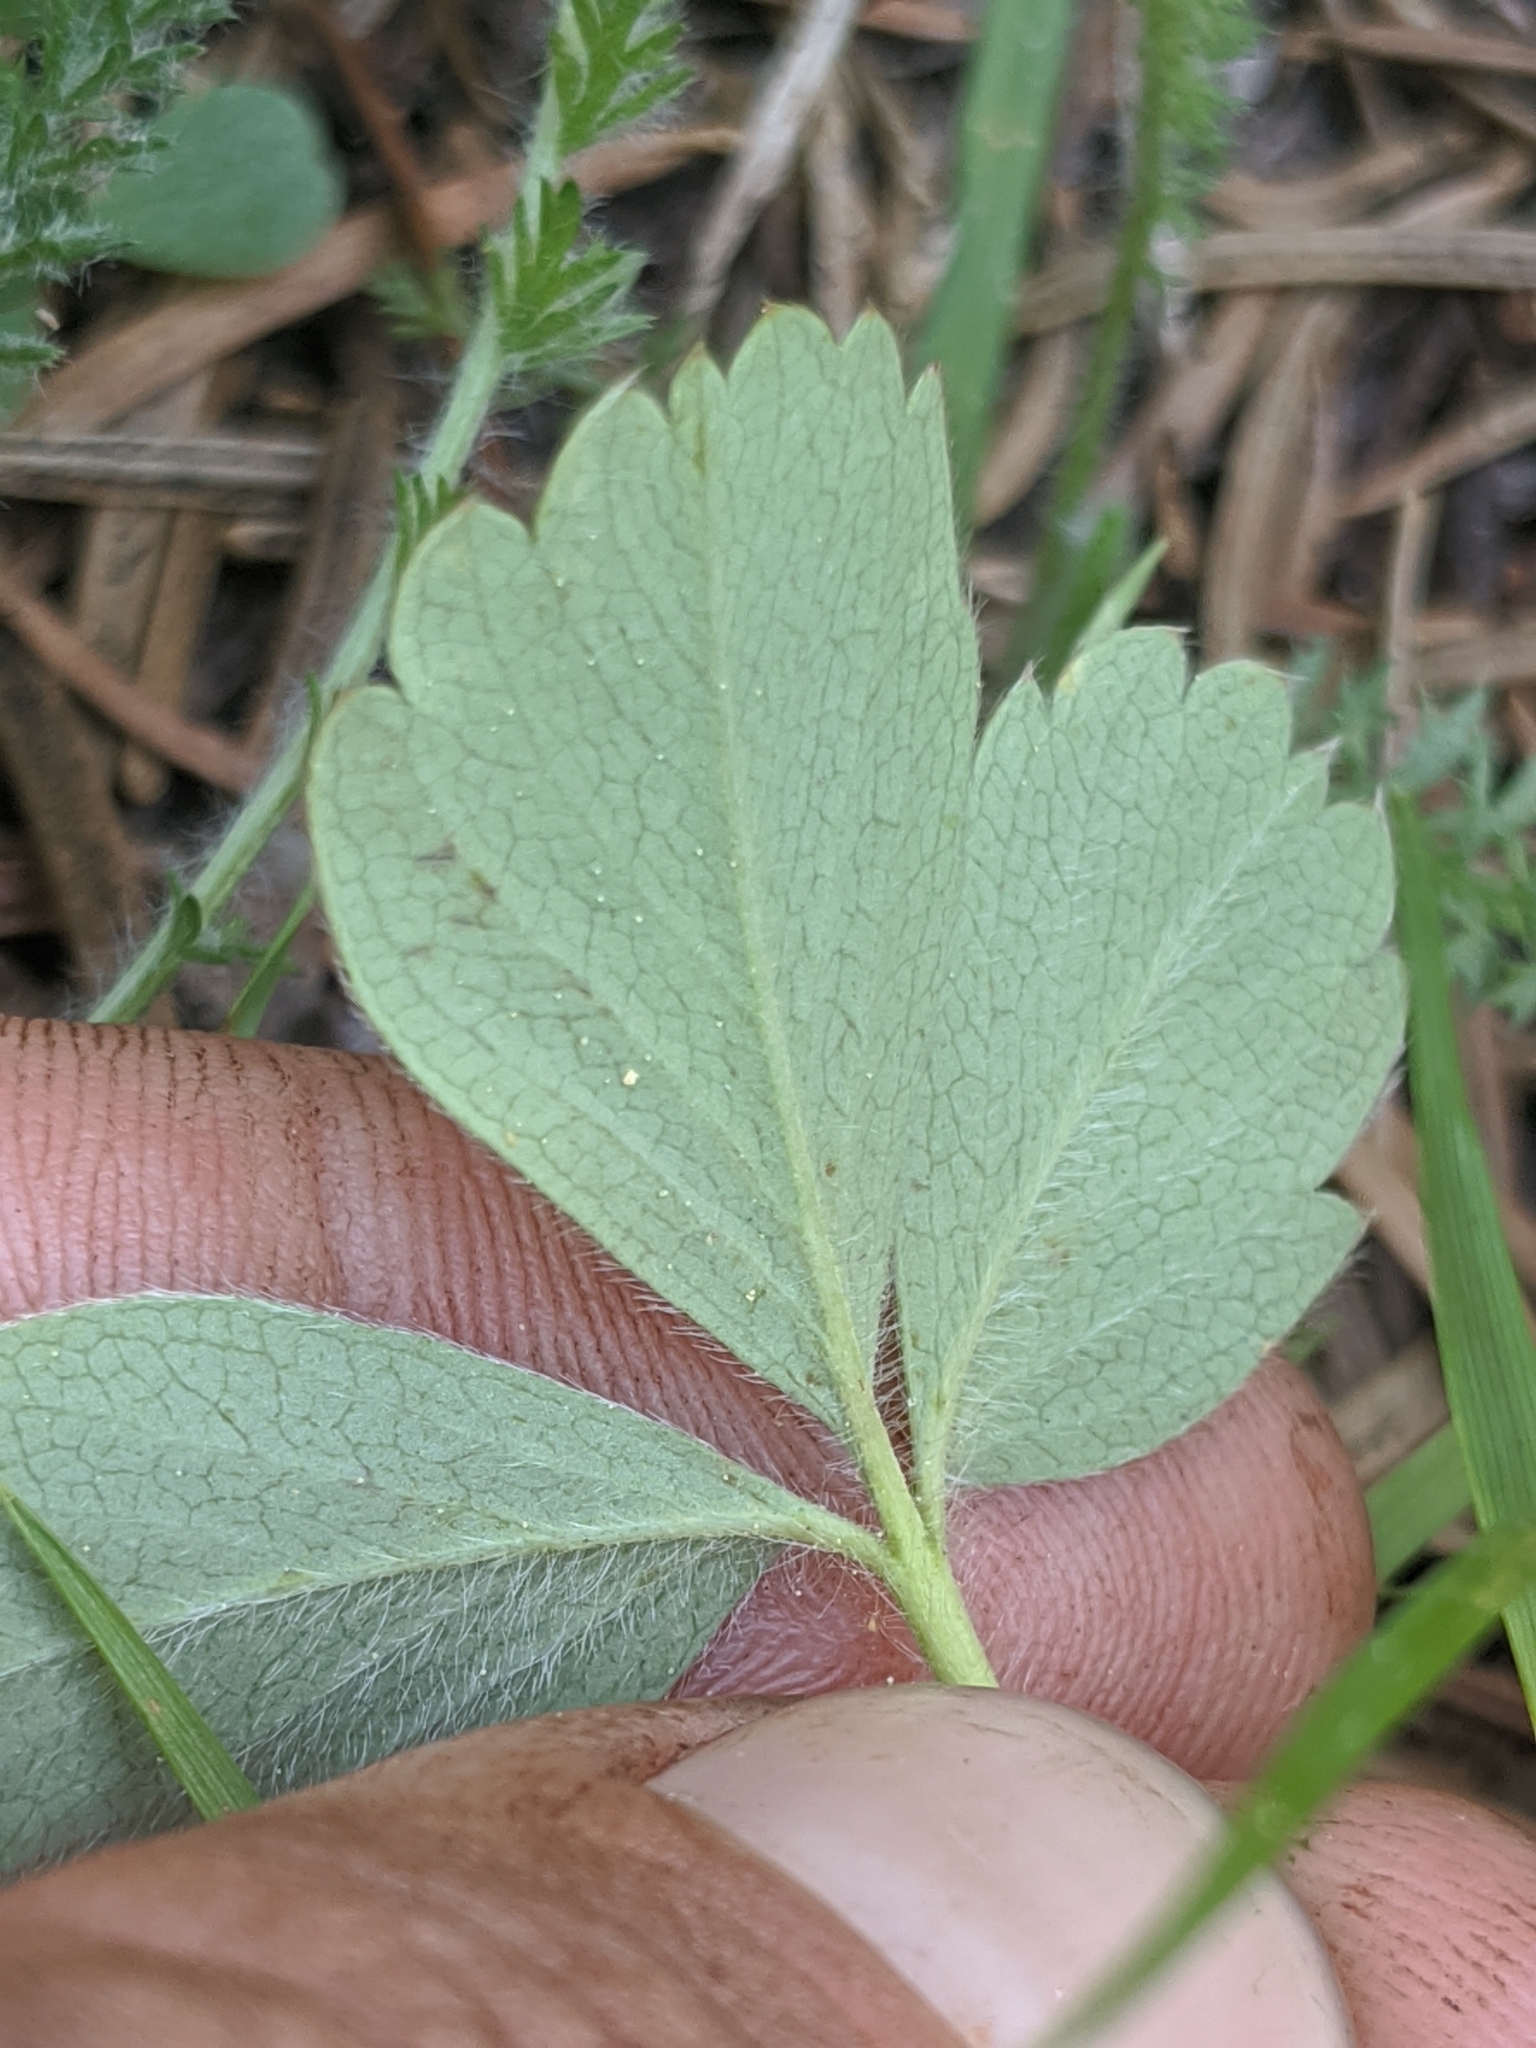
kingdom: Plantae
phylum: Tracheophyta
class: Magnoliopsida
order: Rosales
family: Rosaceae
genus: Fragaria
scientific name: Fragaria virginiana
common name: Thickleaved wild strawberry
